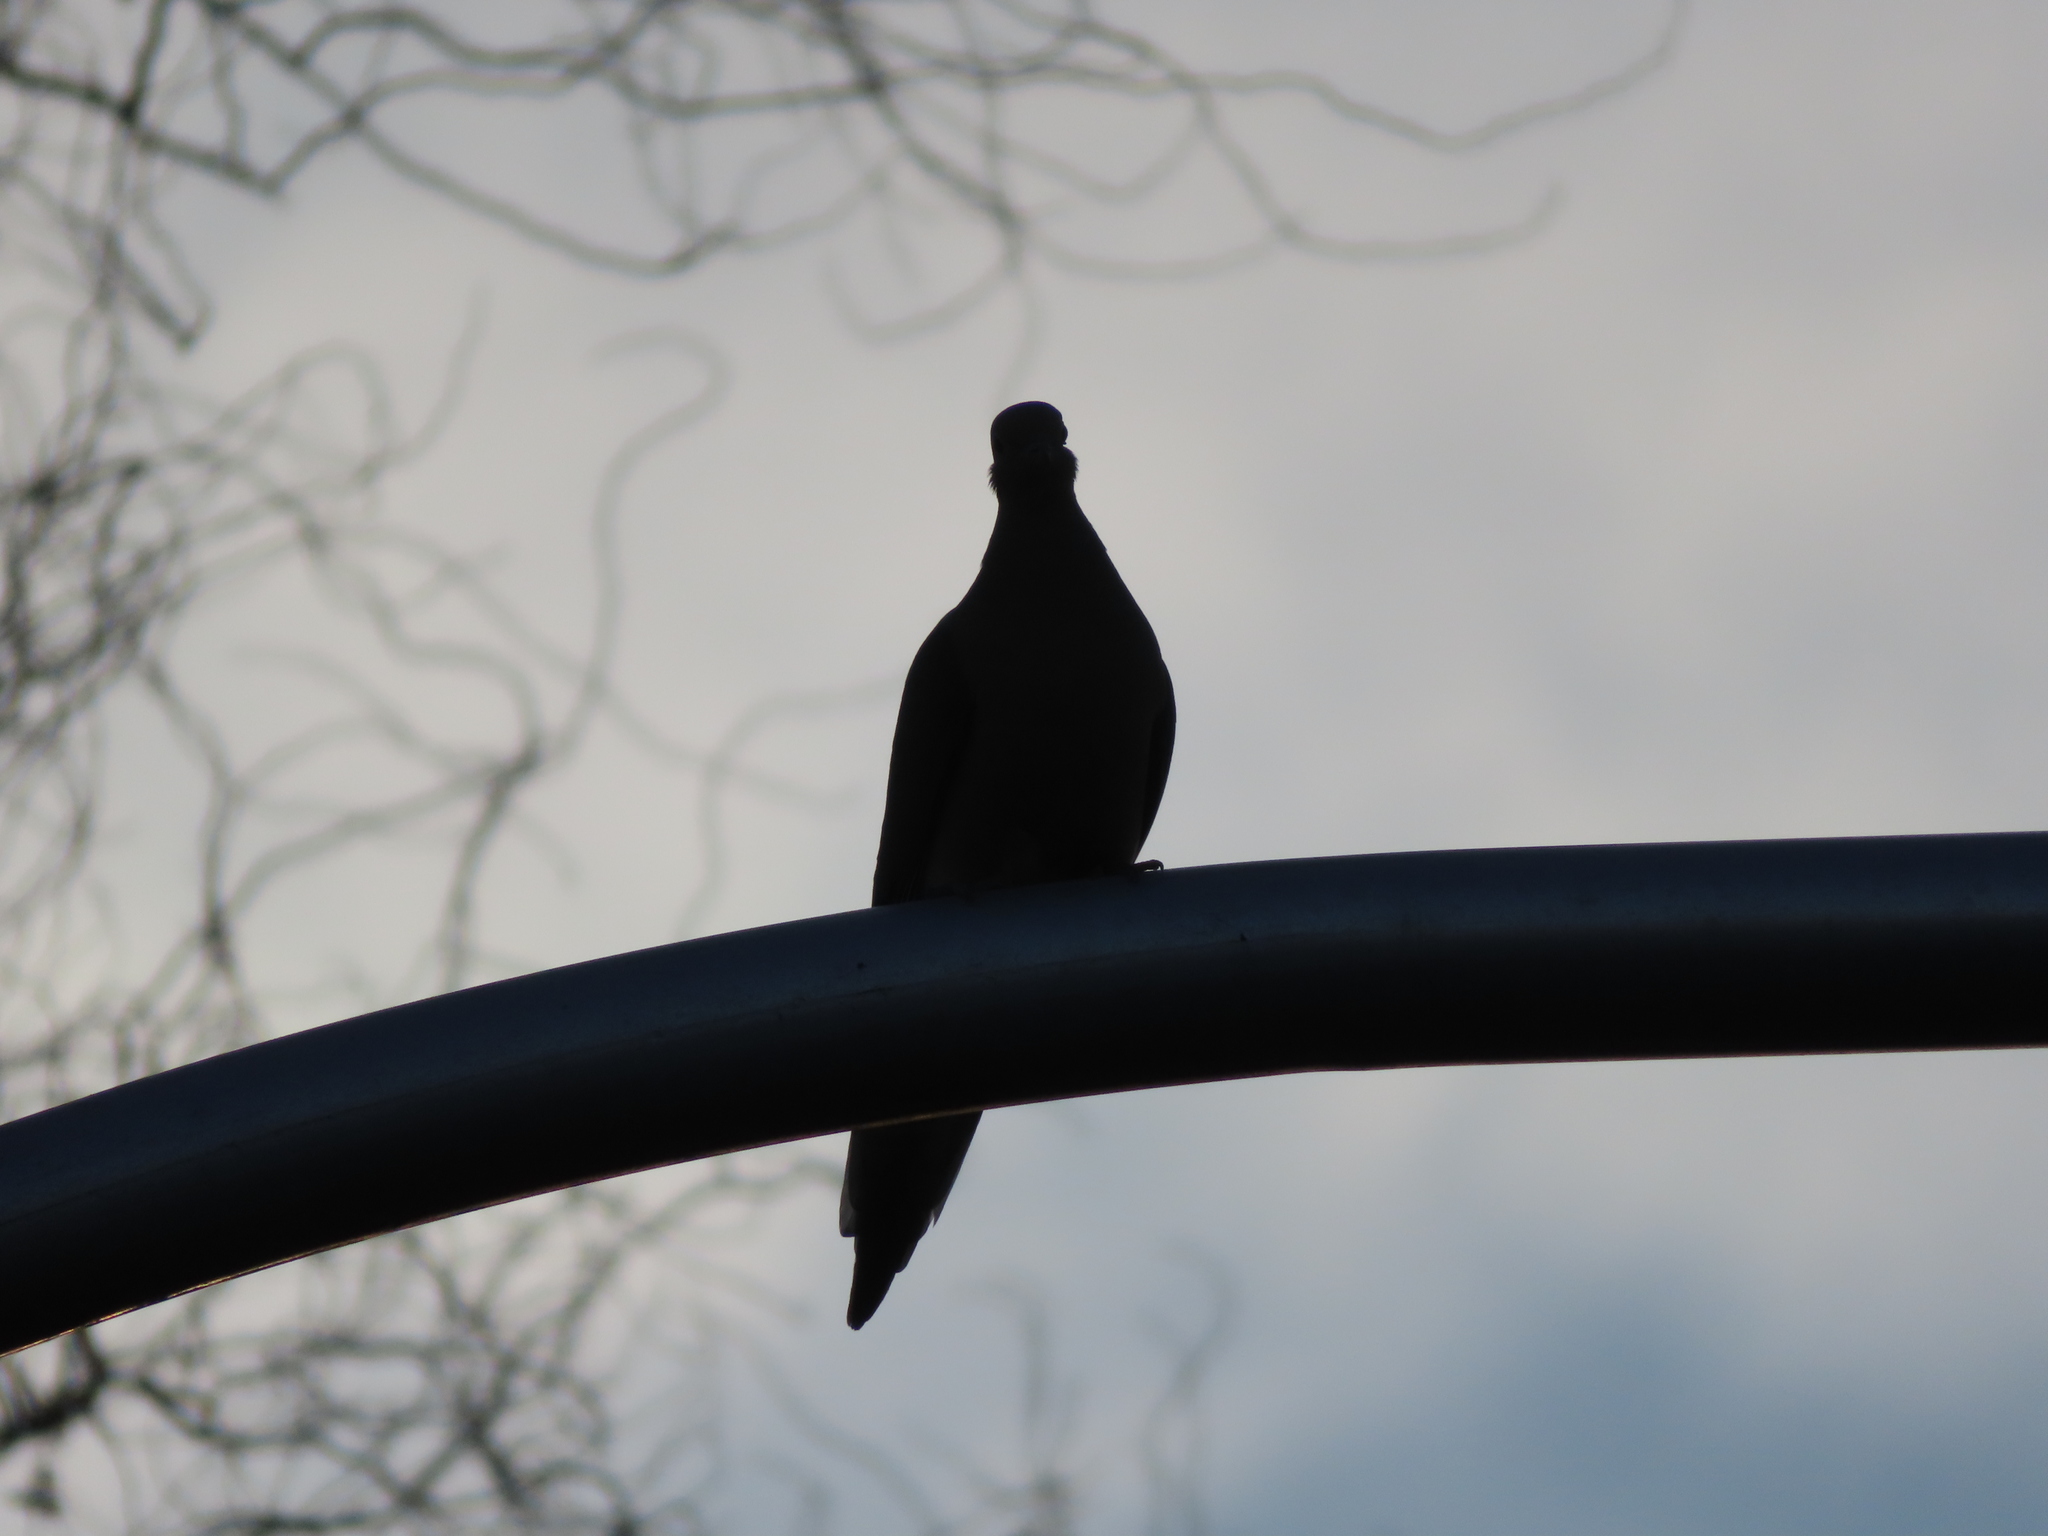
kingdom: Animalia
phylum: Chordata
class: Aves
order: Columbiformes
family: Columbidae
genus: Zenaida
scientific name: Zenaida macroura
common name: Mourning dove
